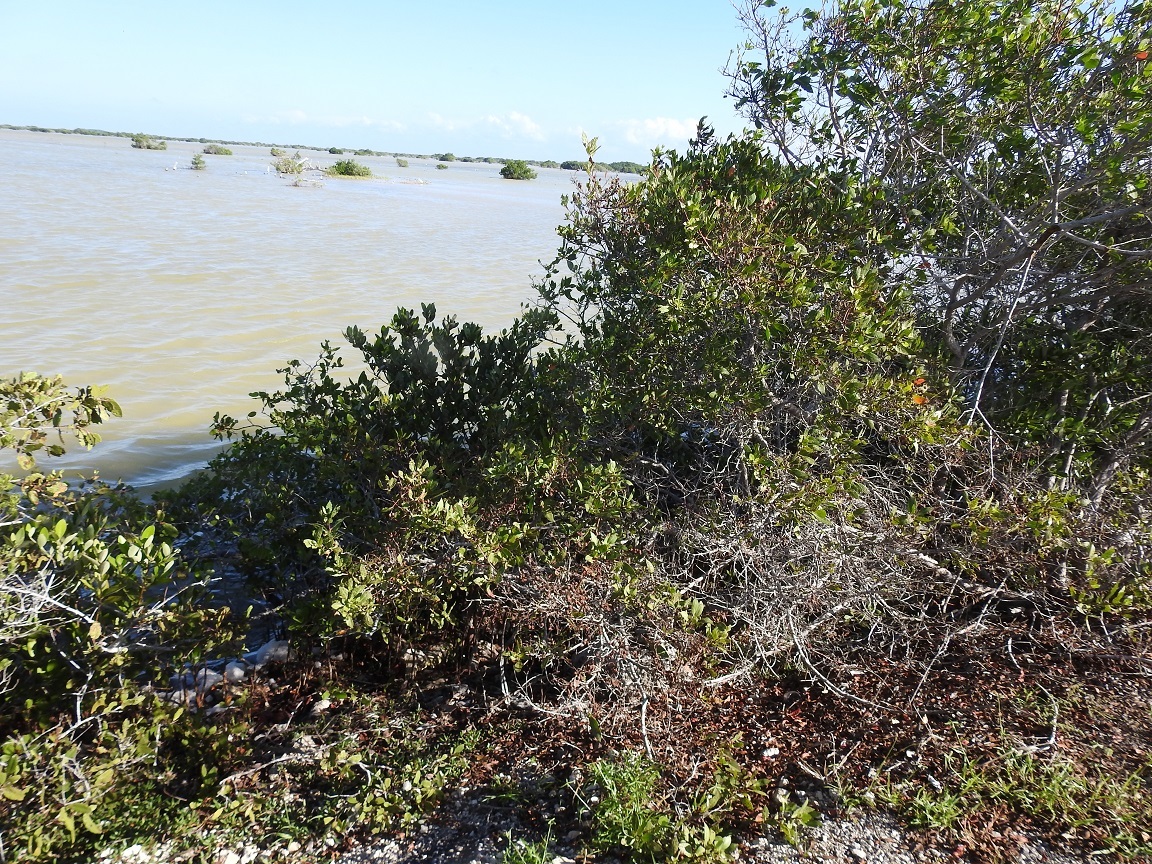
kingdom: Plantae
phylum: Tracheophyta
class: Magnoliopsida
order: Myrtales
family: Combretaceae
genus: Conocarpus
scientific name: Conocarpus erectus
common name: Button mangrove
